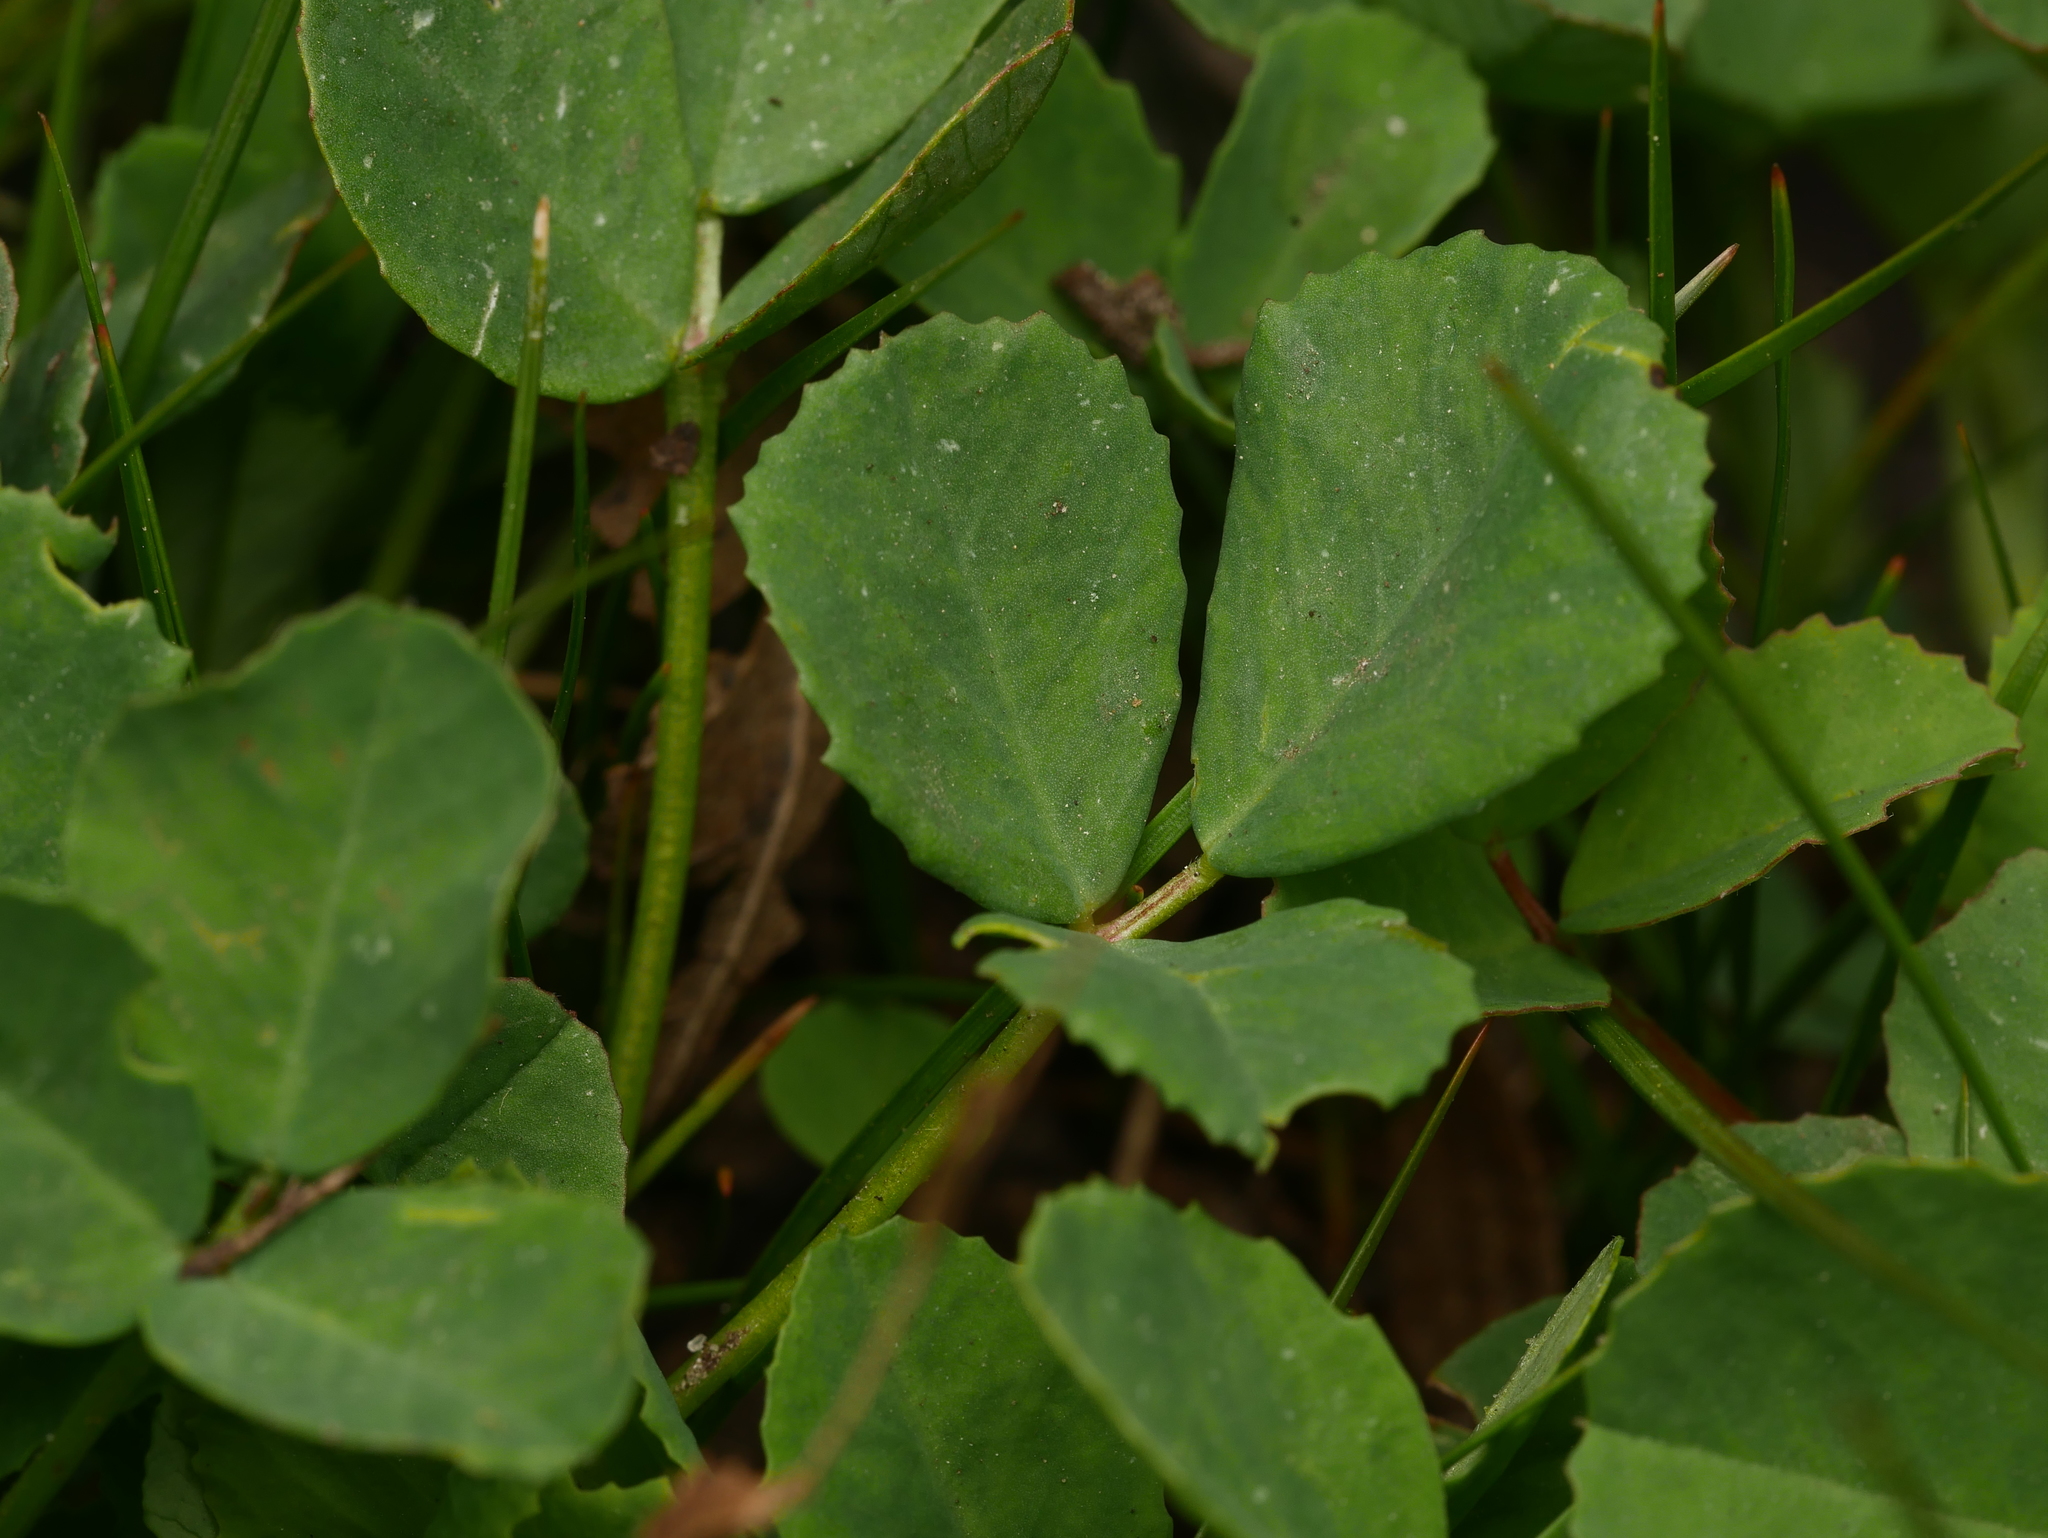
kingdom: Plantae
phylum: Tracheophyta
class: Magnoliopsida
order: Fabales
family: Fabaceae
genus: Medicago
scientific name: Medicago lupulina
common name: Black medick
